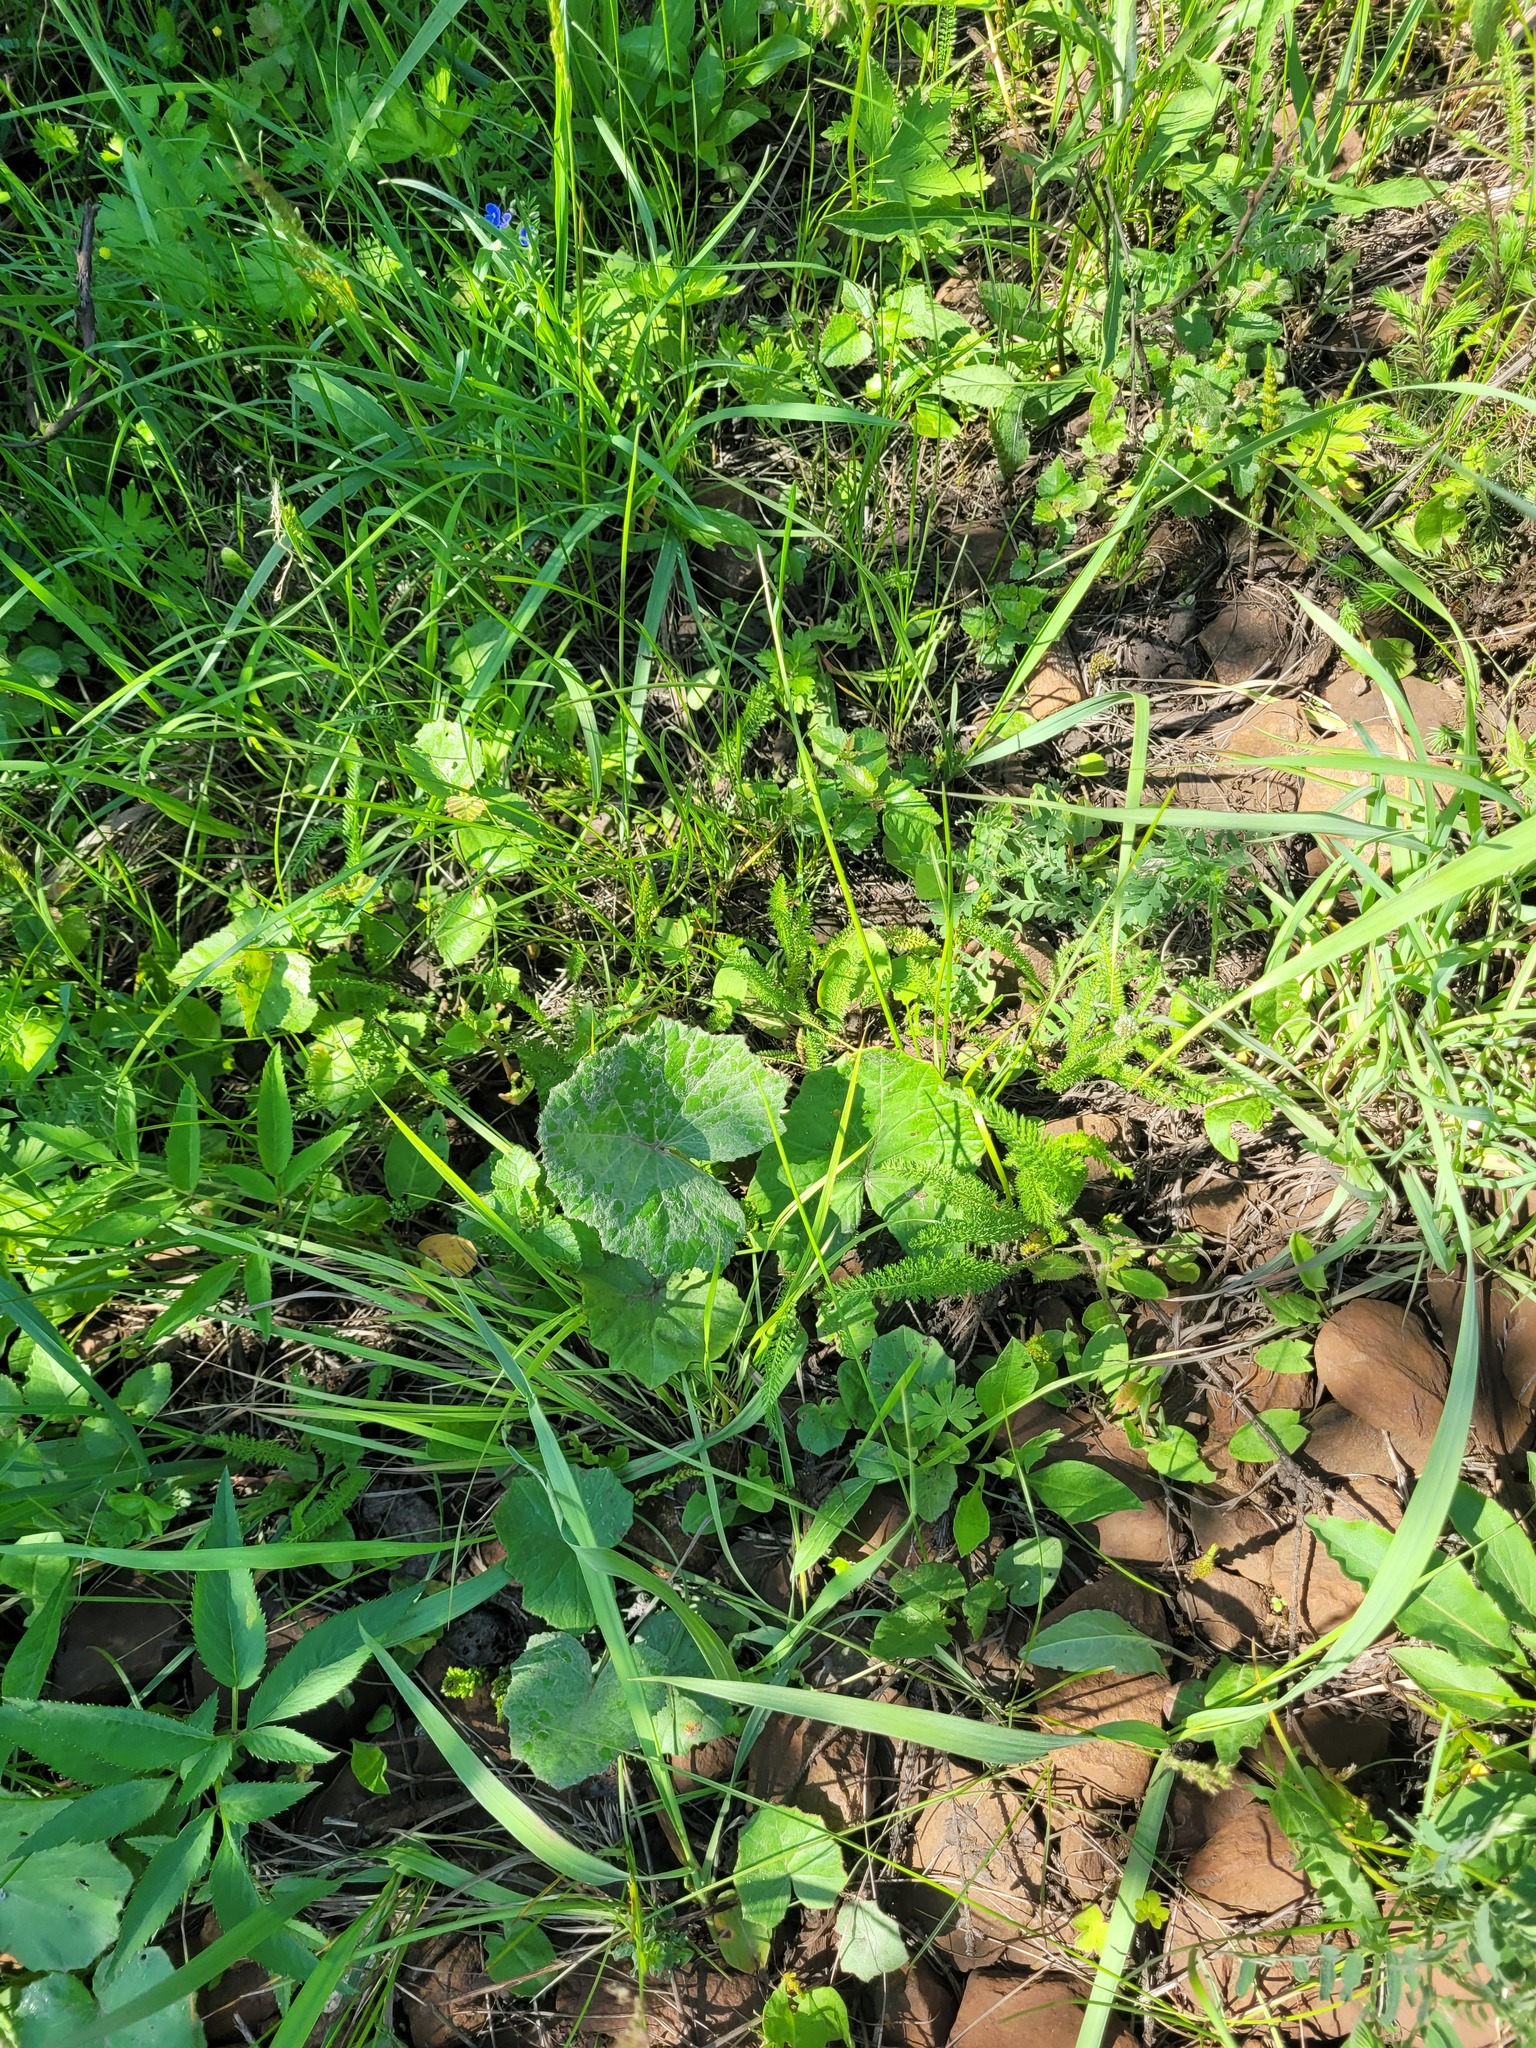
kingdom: Plantae
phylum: Tracheophyta
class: Magnoliopsida
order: Asterales
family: Asteraceae
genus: Tussilago
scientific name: Tussilago farfara
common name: Coltsfoot
